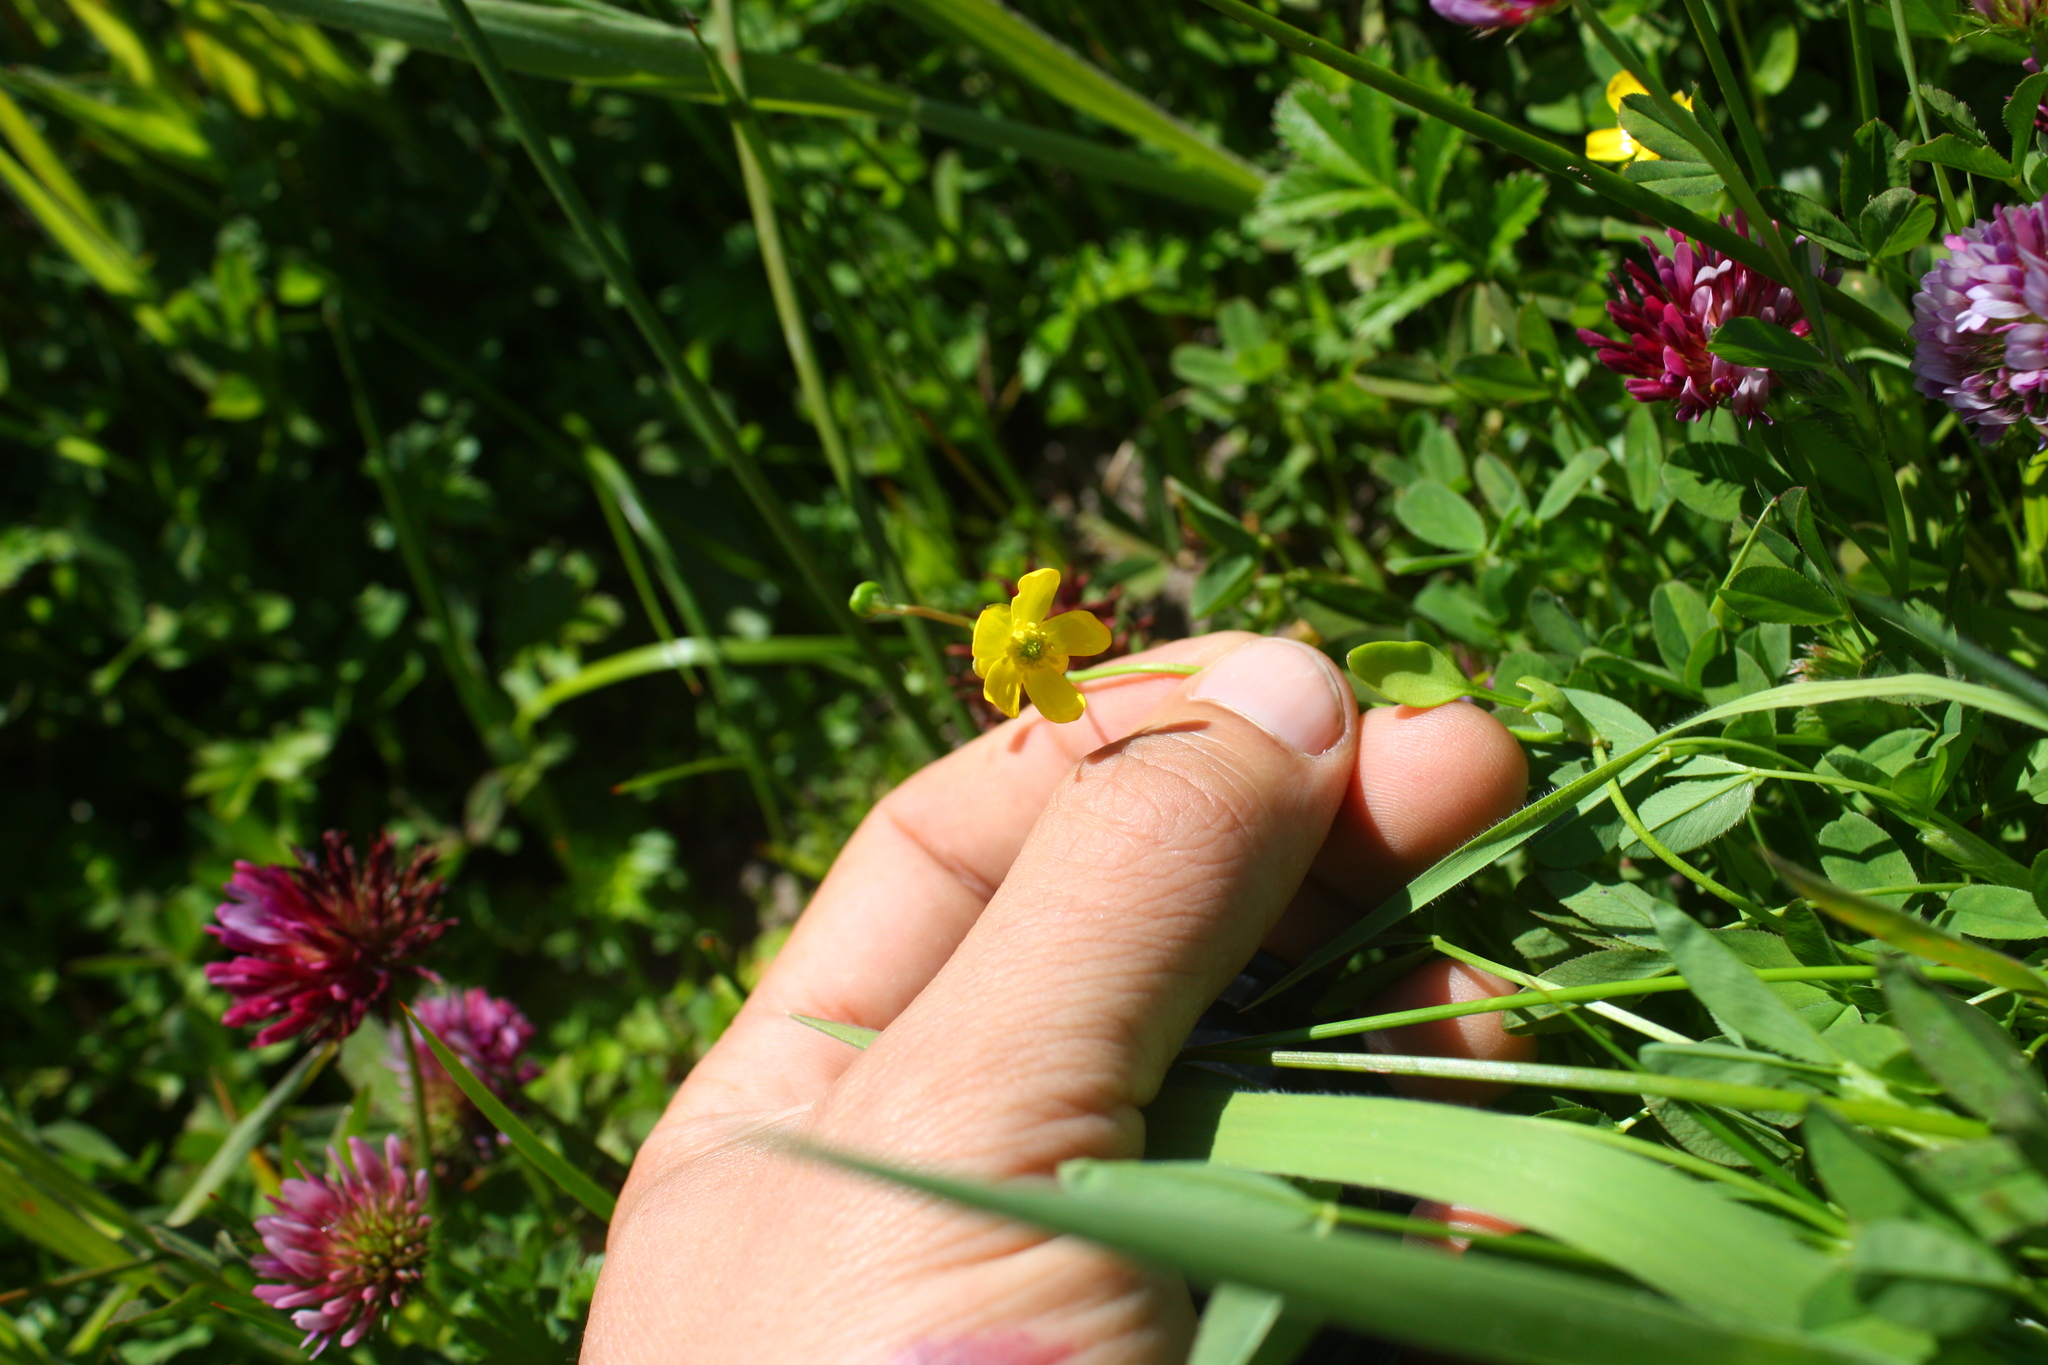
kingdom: Plantae
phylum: Tracheophyta
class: Magnoliopsida
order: Ranunculales
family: Ranunculaceae
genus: Ranunculus
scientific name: Ranunculus flammula
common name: Lesser spearwort
